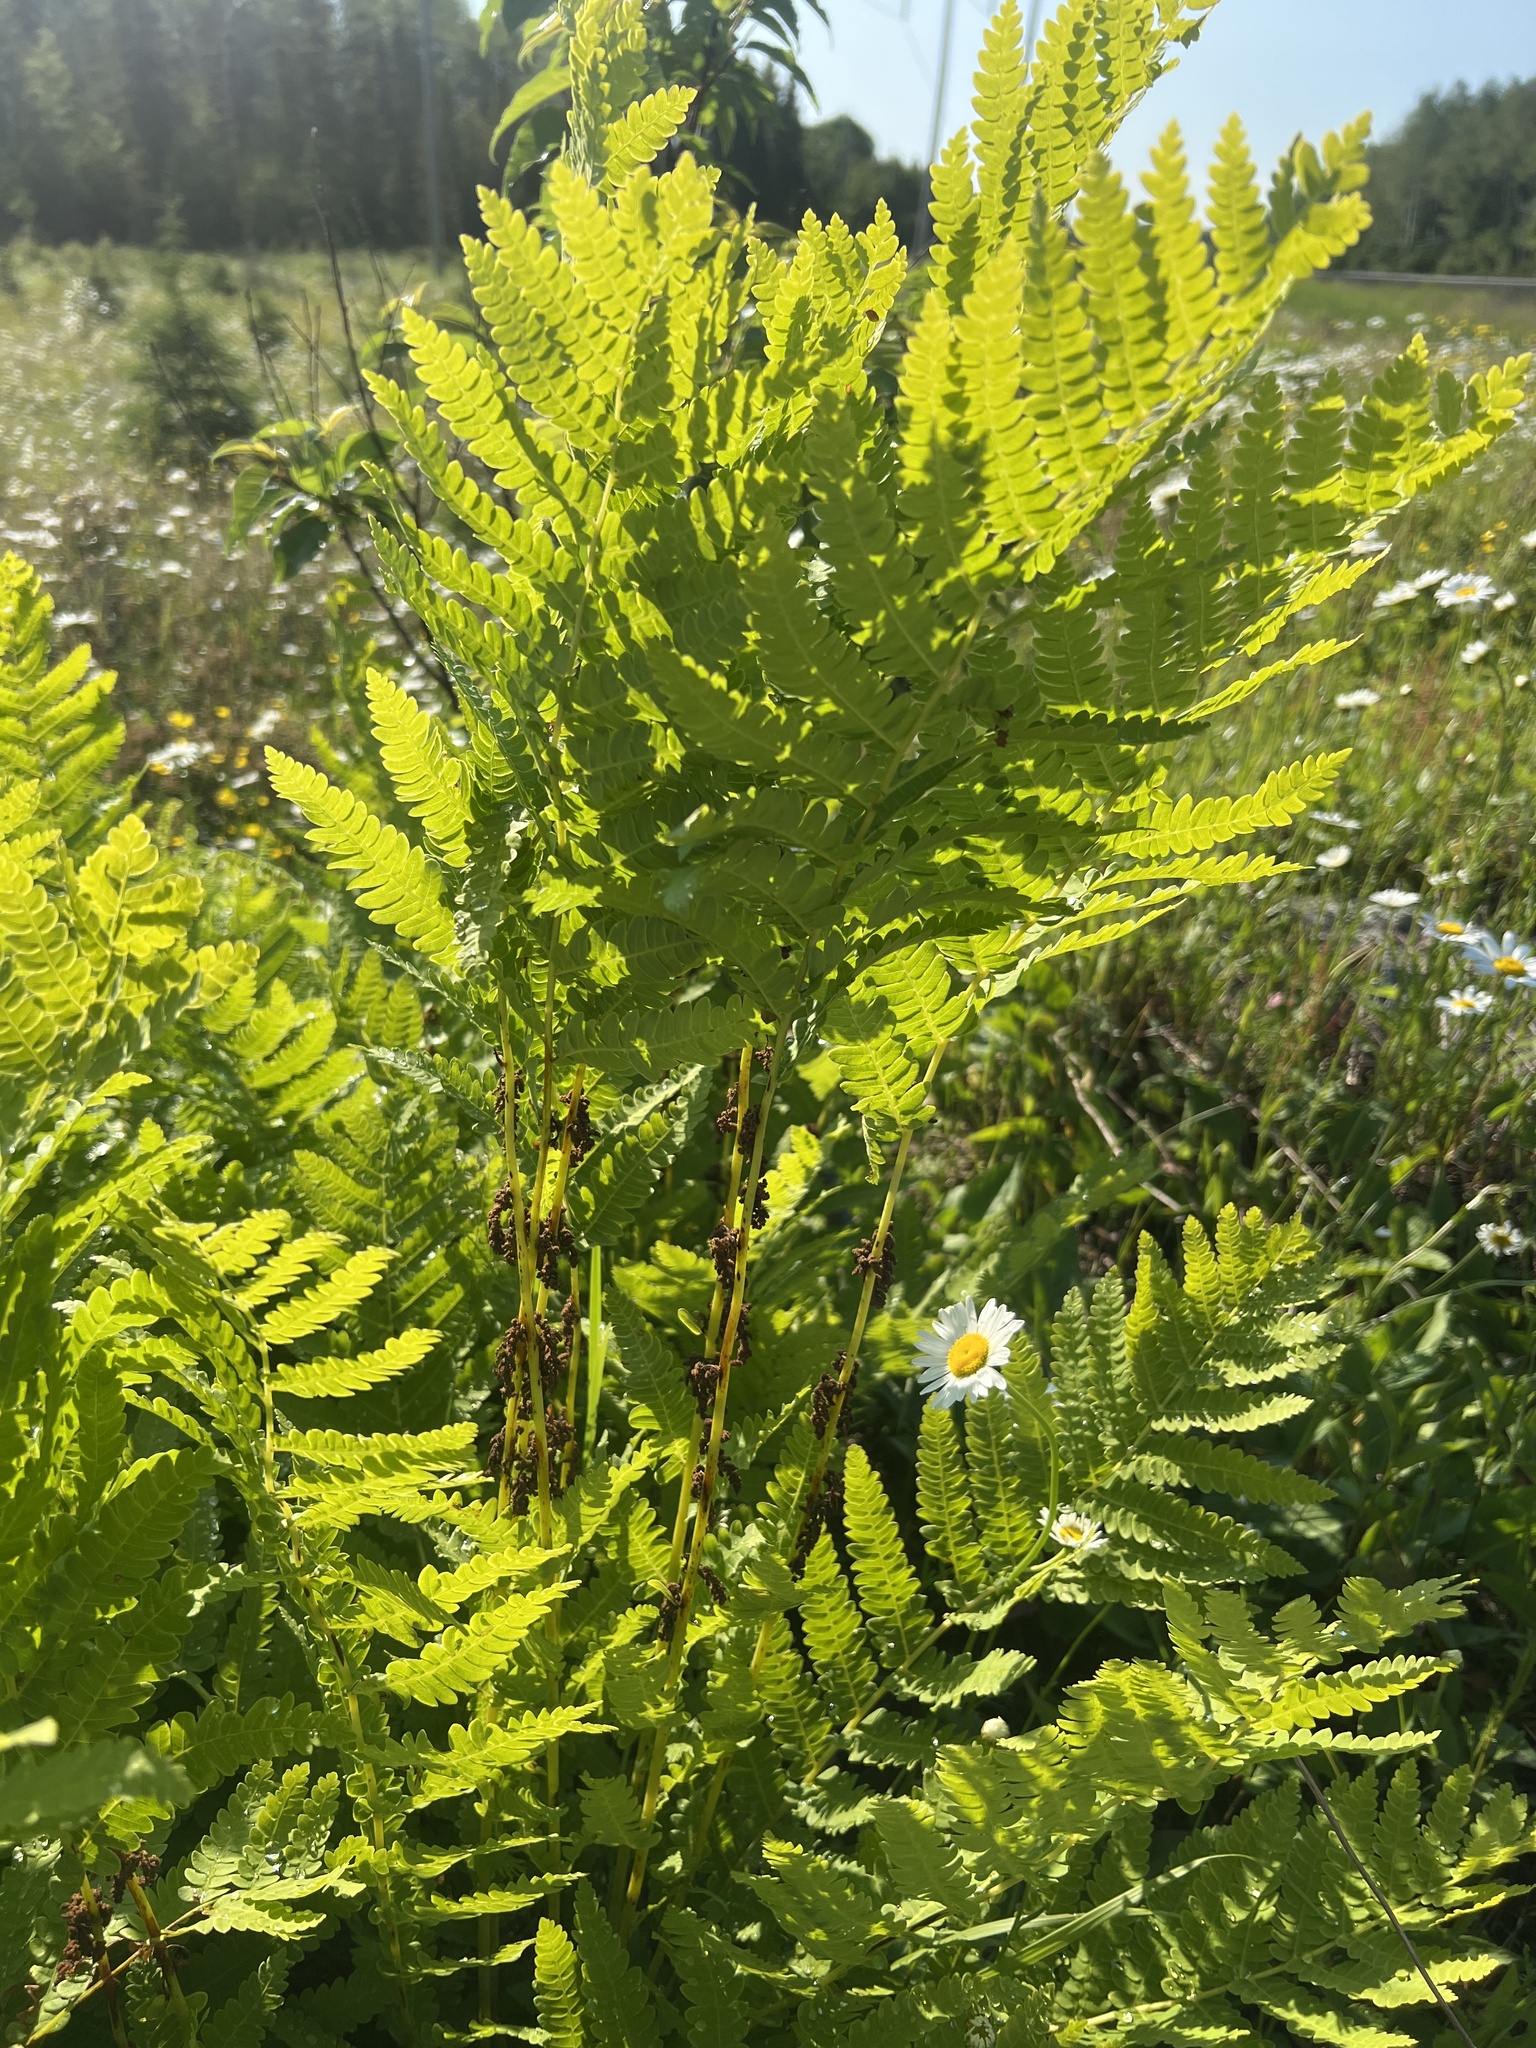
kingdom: Plantae
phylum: Tracheophyta
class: Polypodiopsida
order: Osmundales
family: Osmundaceae
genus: Claytosmunda
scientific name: Claytosmunda claytoniana
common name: Clayton's fern
